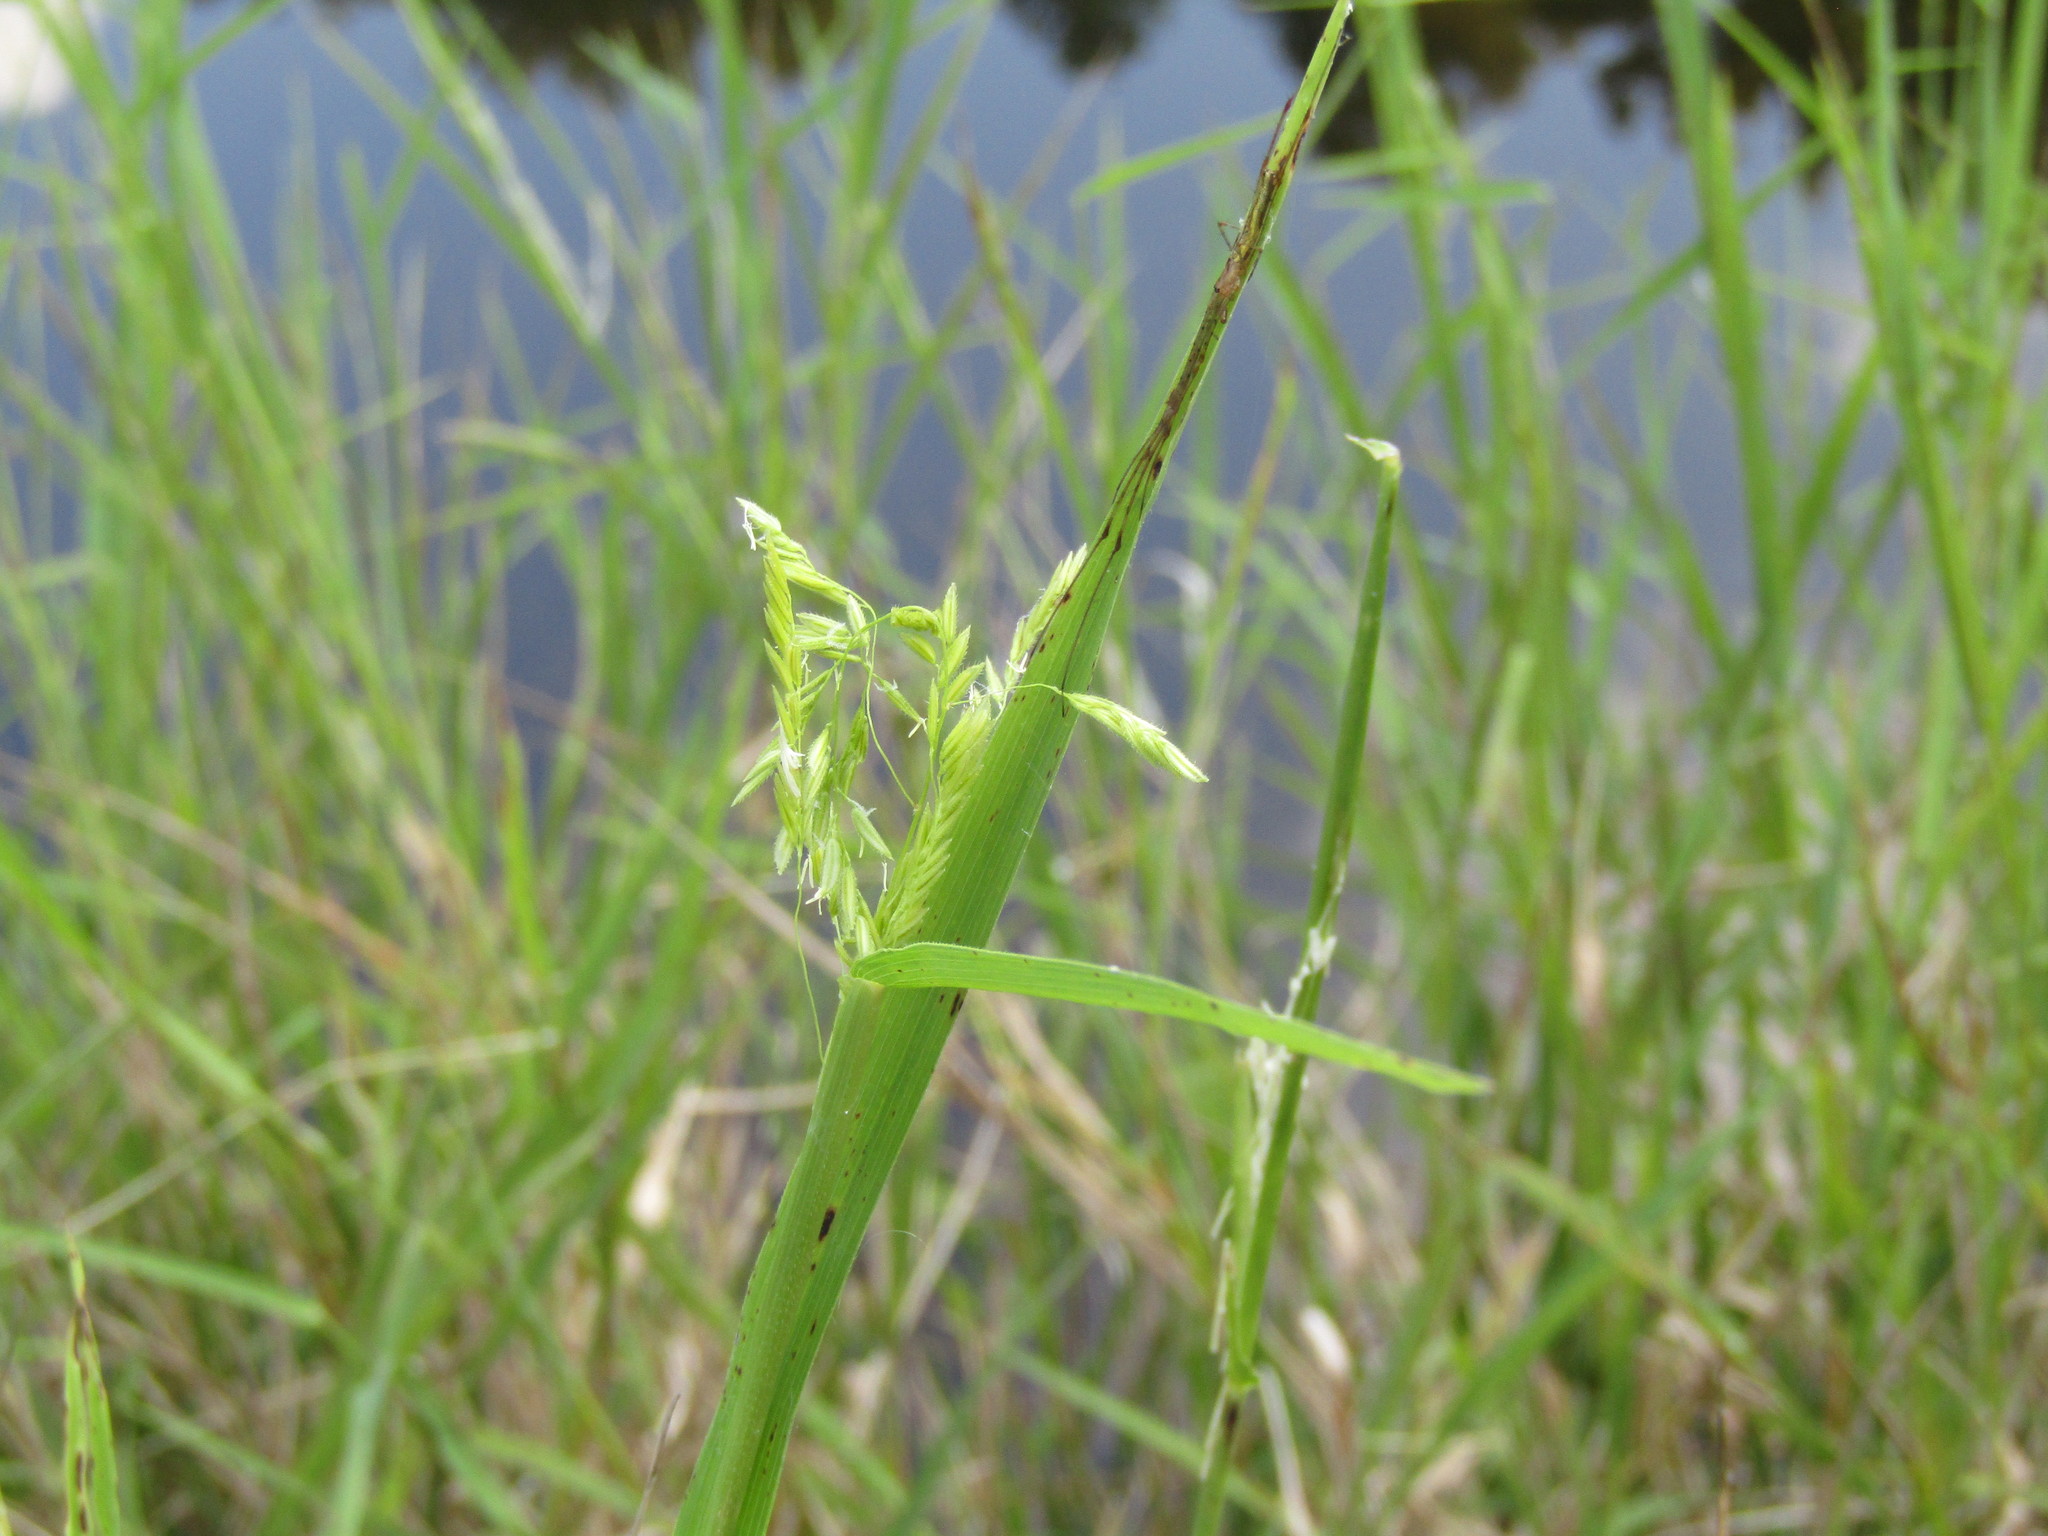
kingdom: Plantae
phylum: Tracheophyta
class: Liliopsida
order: Poales
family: Poaceae
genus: Leersia
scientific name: Leersia oryzoides
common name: Cut-grass
